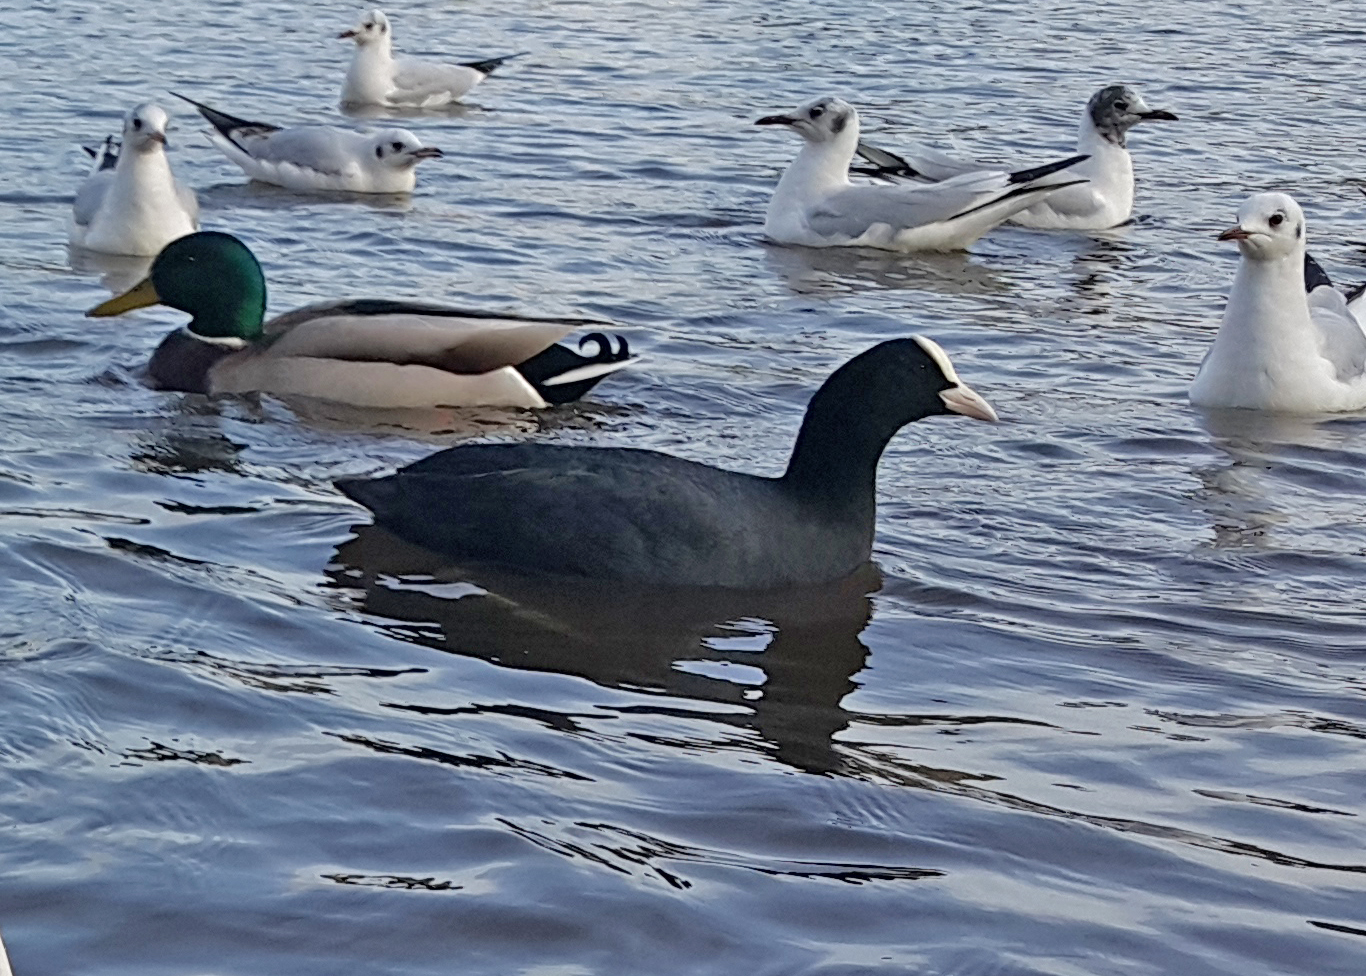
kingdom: Animalia
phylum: Chordata
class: Aves
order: Gruiformes
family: Rallidae
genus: Fulica
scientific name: Fulica atra
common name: Eurasian coot
